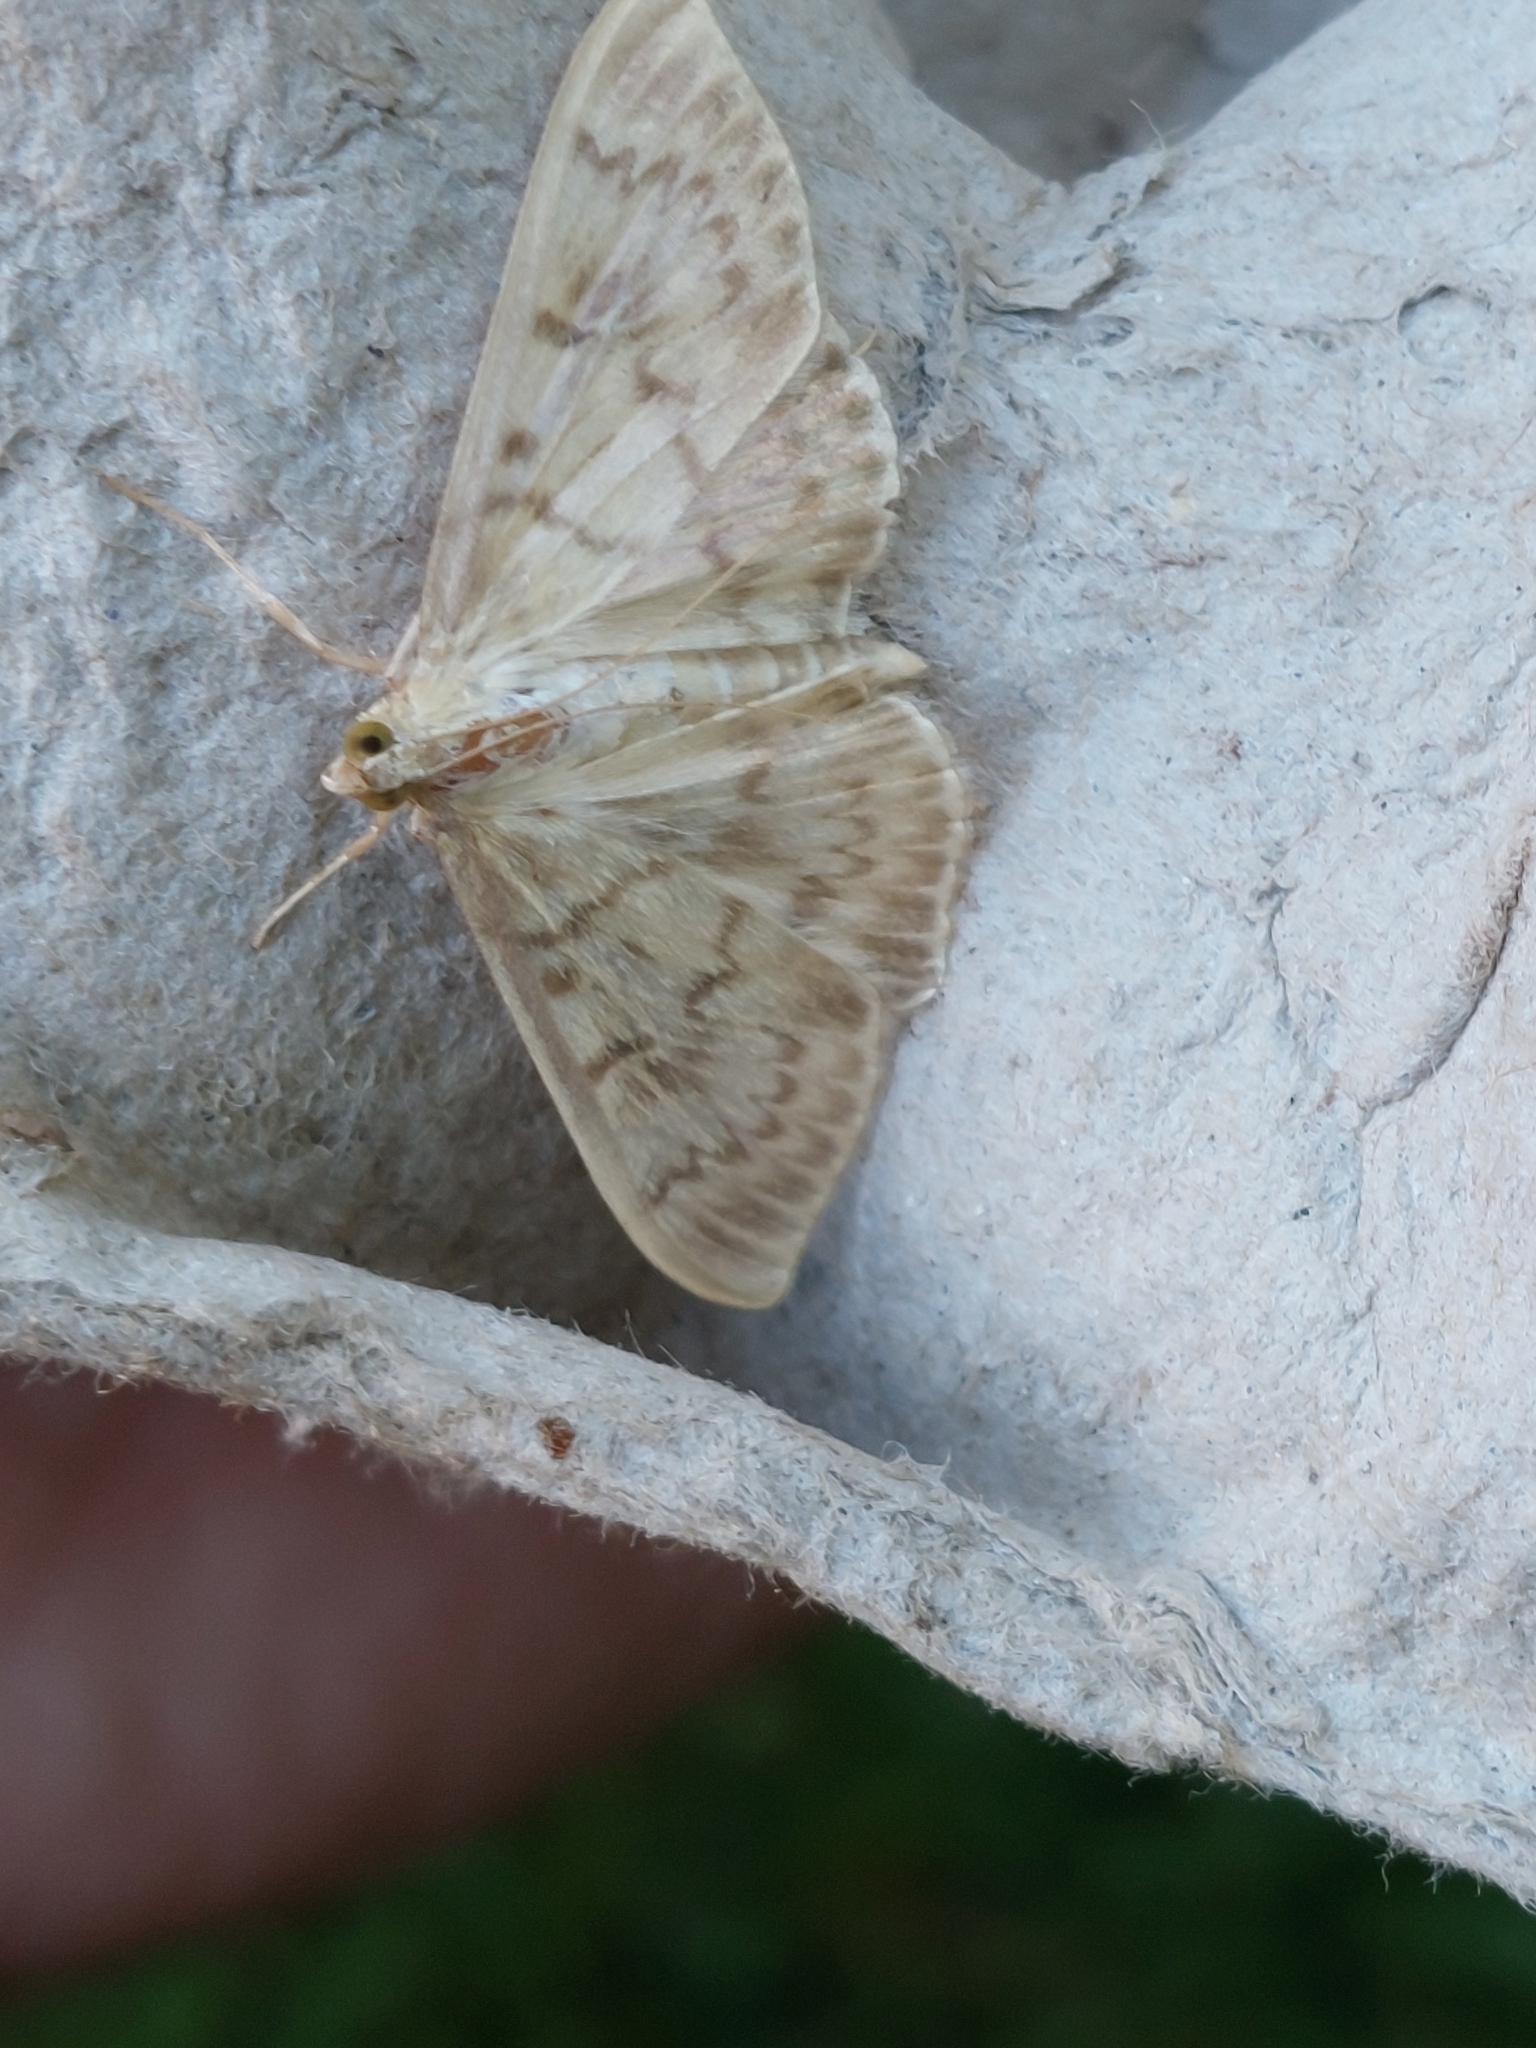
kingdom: Animalia
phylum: Arthropoda
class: Insecta
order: Lepidoptera
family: Crambidae
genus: Patania
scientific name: Patania ruralis
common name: Mother of pearl
